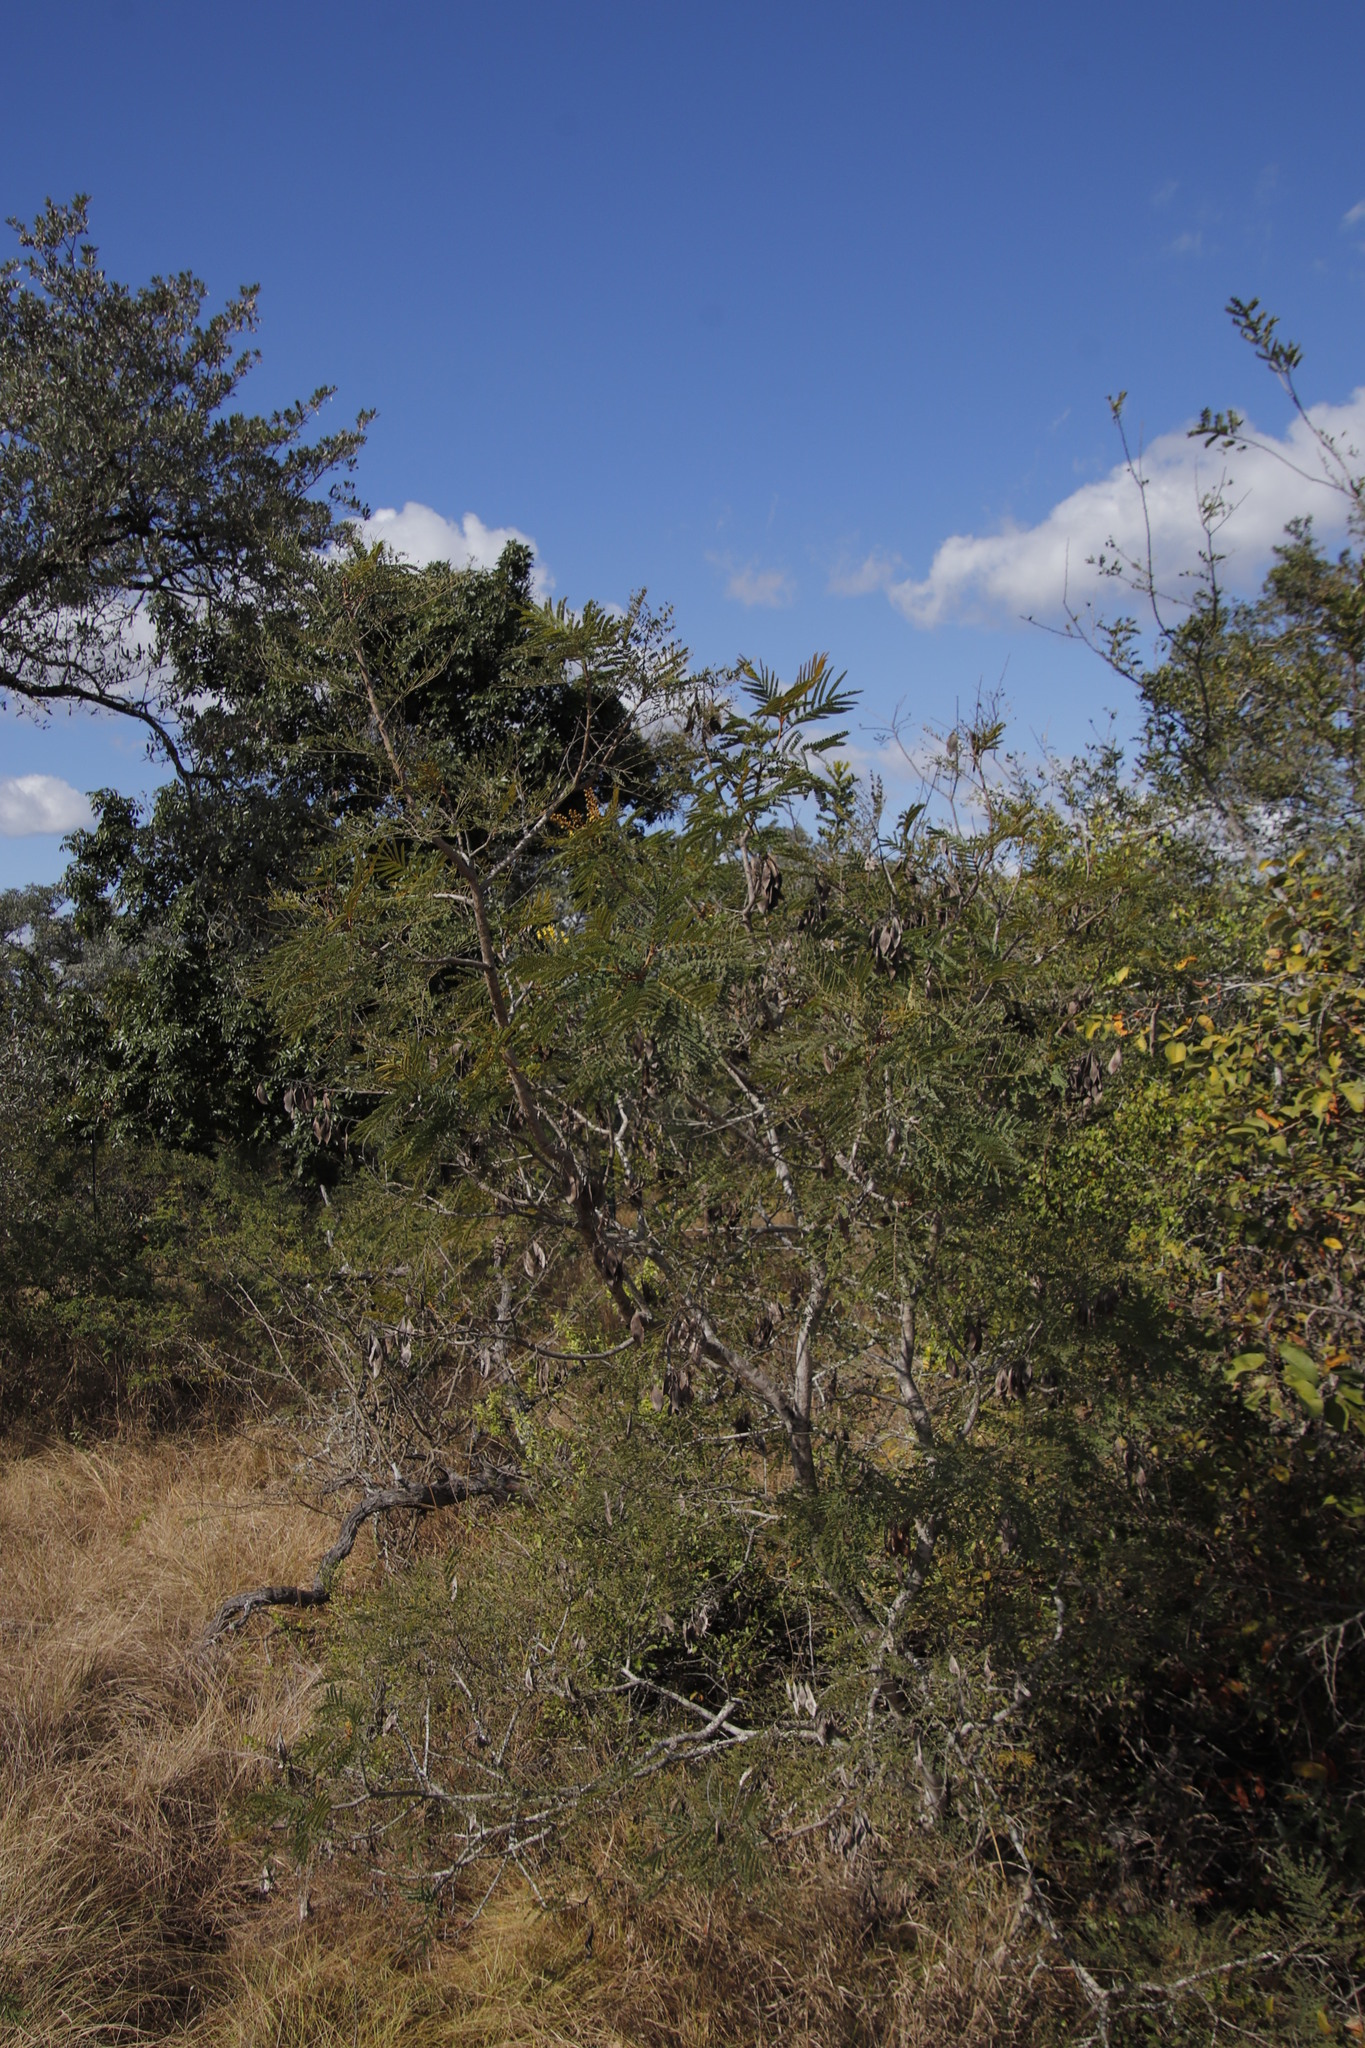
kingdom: Plantae
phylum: Tracheophyta
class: Magnoliopsida
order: Fabales
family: Fabaceae
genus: Peltophorum
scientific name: Peltophorum africanum
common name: African black wattle
